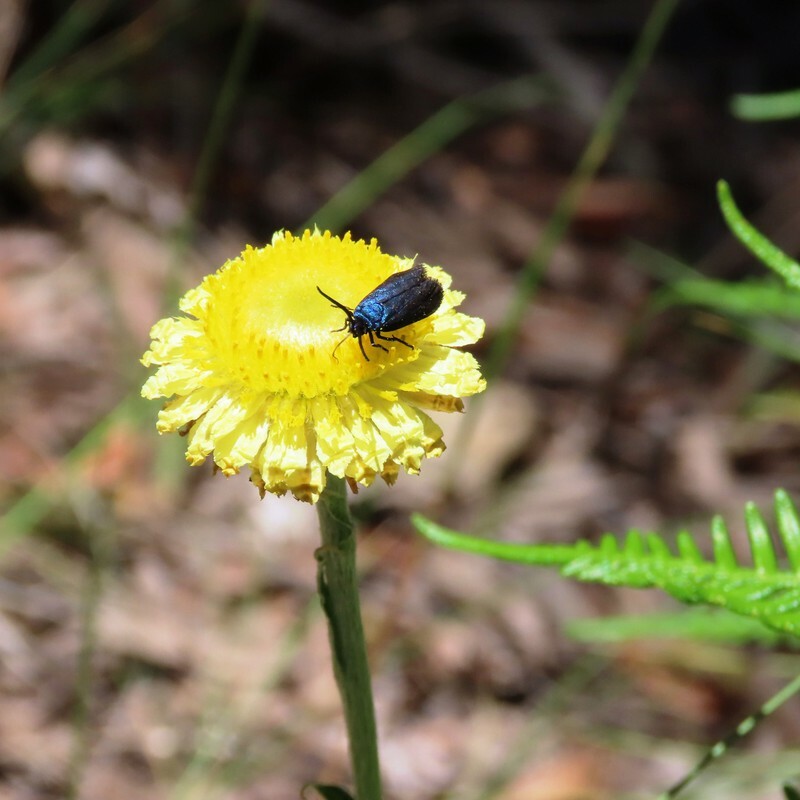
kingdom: Plantae
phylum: Tracheophyta
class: Magnoliopsida
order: Asterales
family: Asteraceae
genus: Coronidium
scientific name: Coronidium scorpioides
